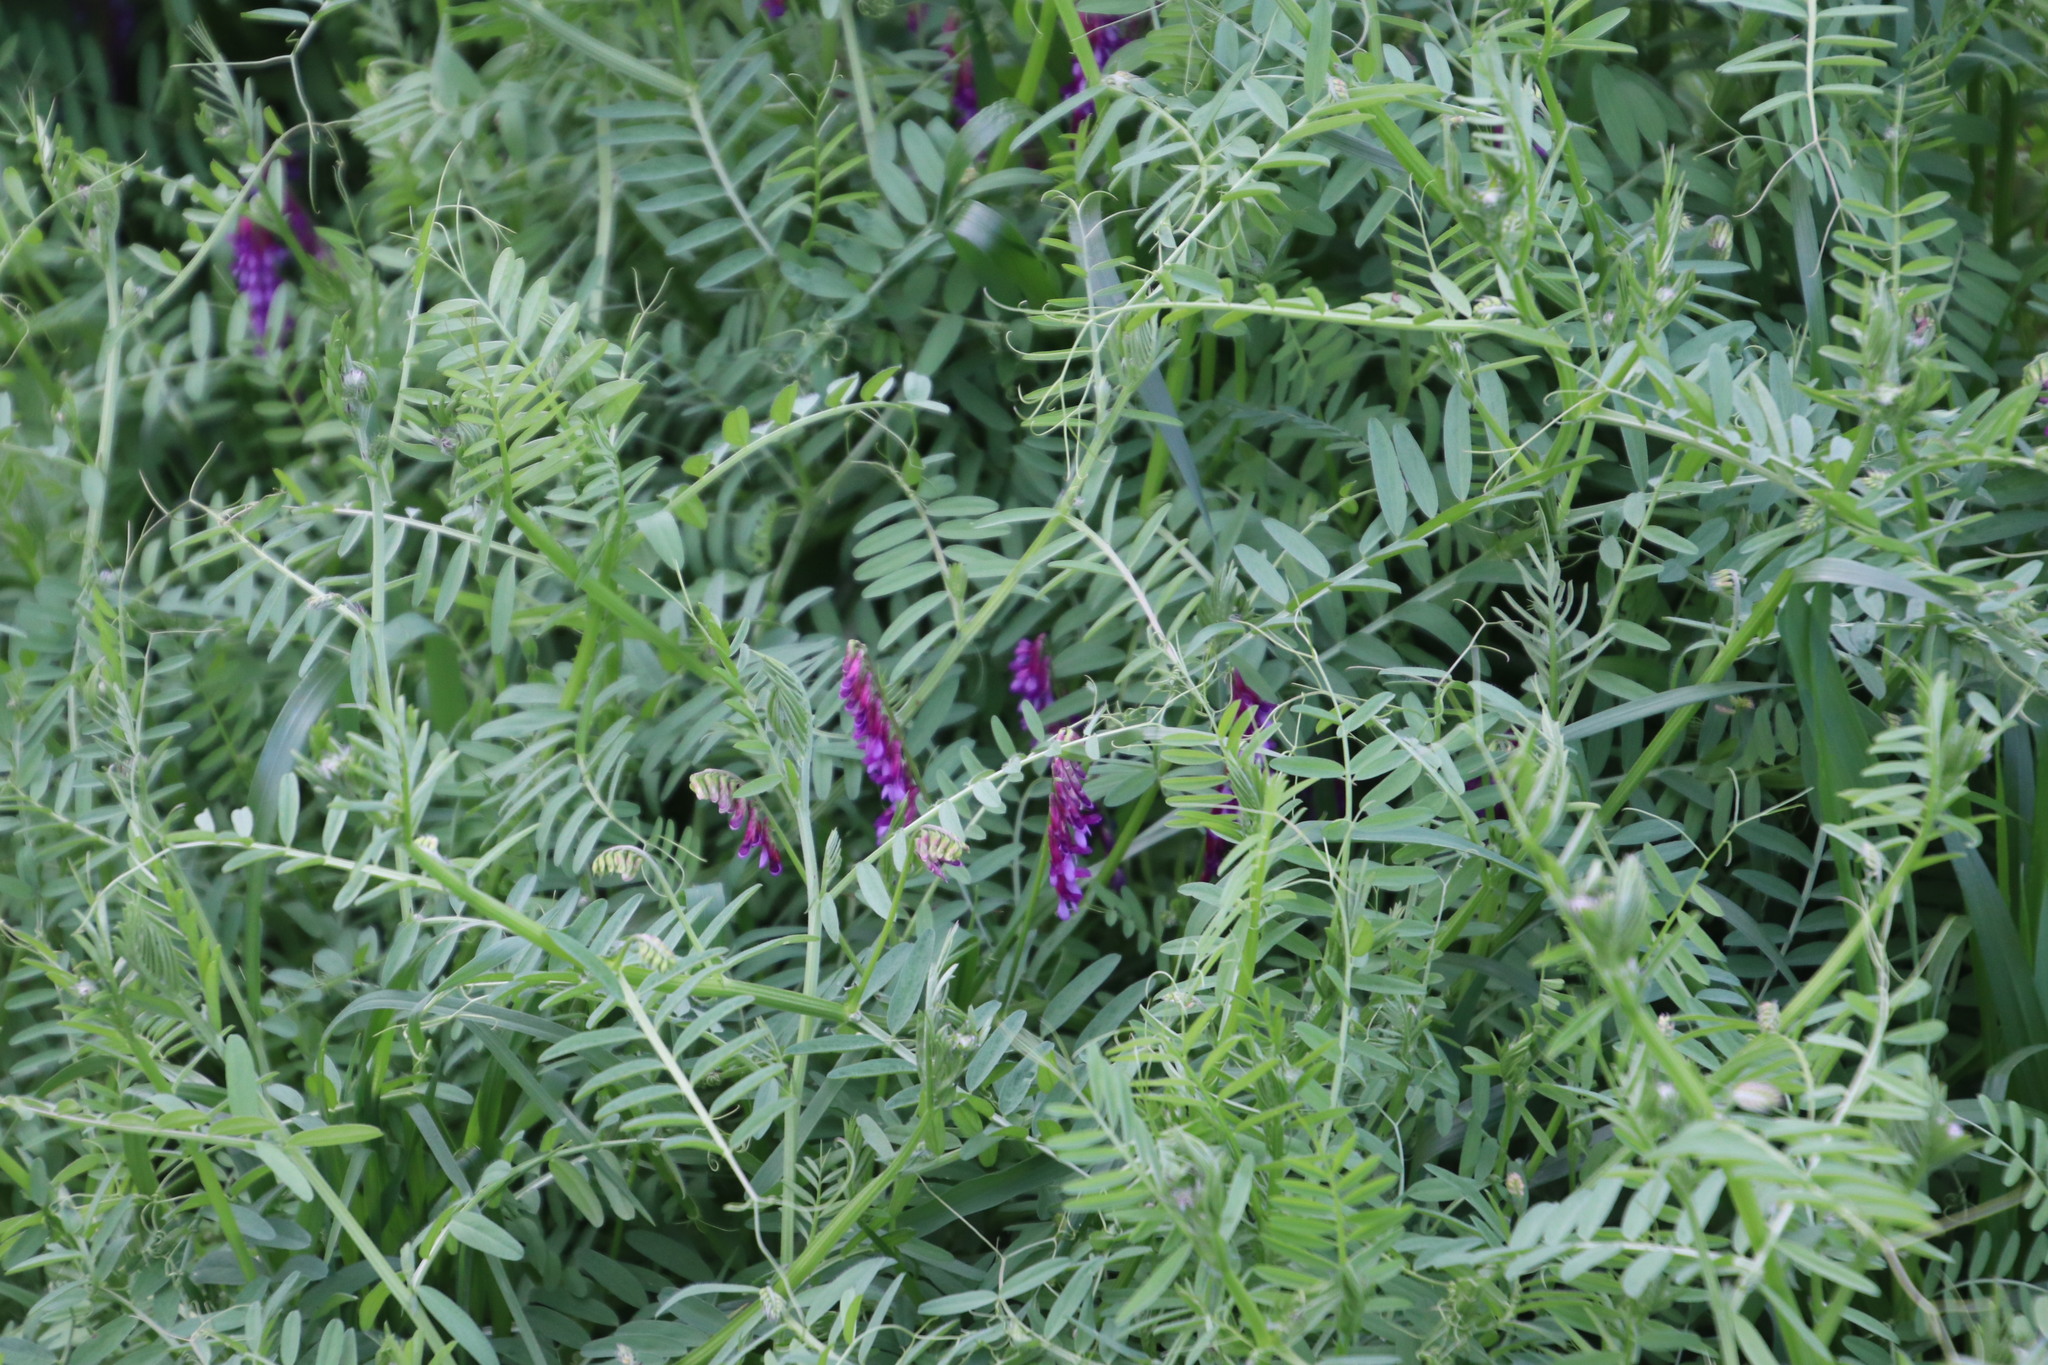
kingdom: Plantae
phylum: Tracheophyta
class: Magnoliopsida
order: Fabales
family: Fabaceae
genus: Vicia
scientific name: Vicia eriocarpa
